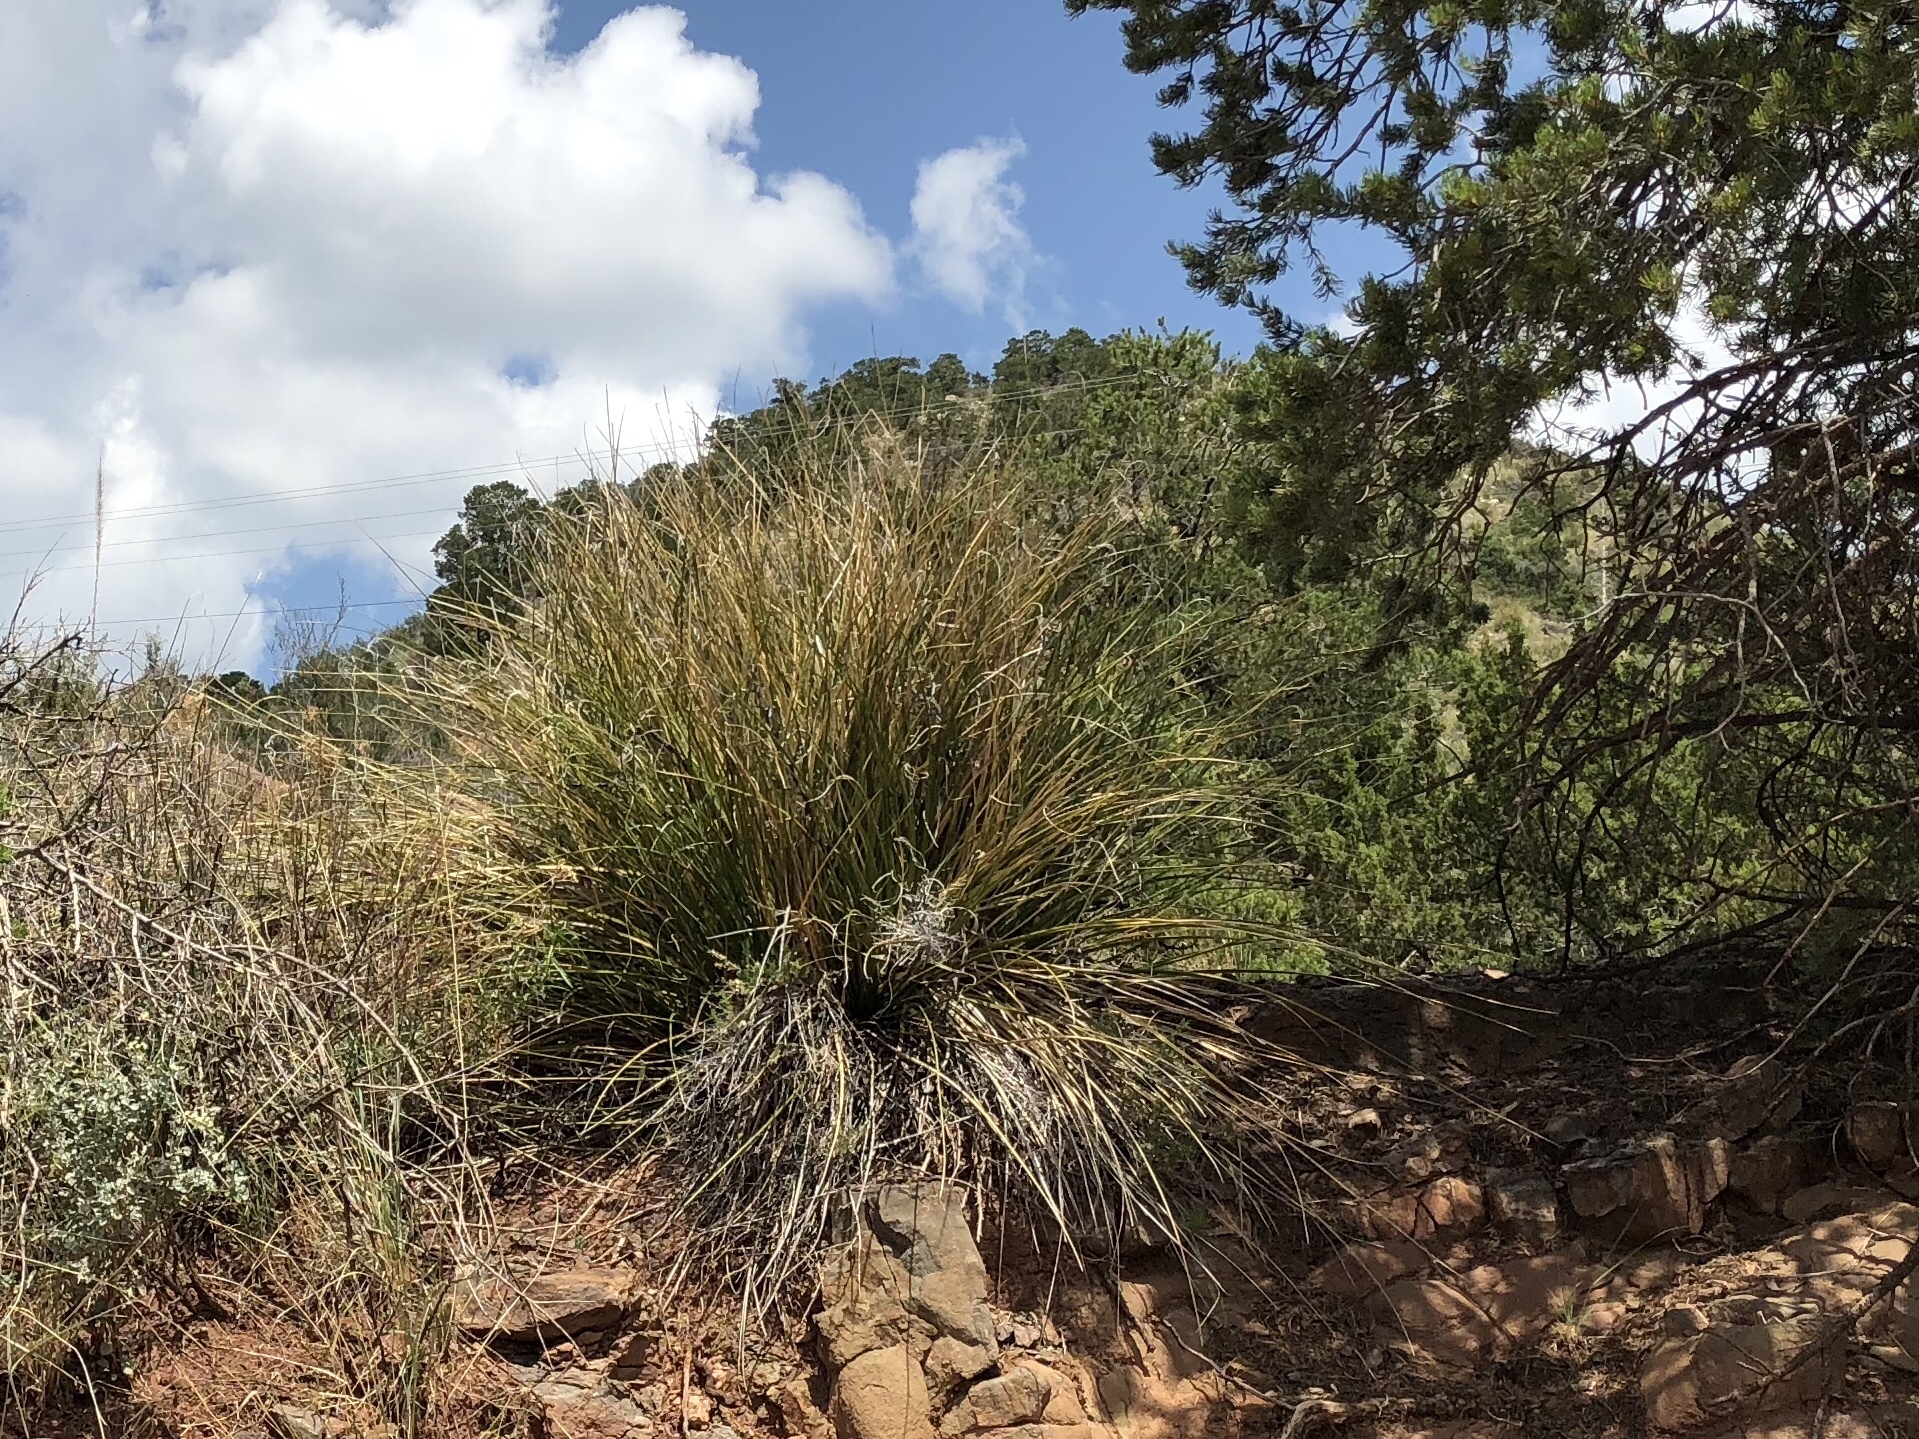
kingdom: Plantae
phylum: Tracheophyta
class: Liliopsida
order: Asparagales
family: Asparagaceae
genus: Nolina
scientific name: Nolina microcarpa
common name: Bear-grass
